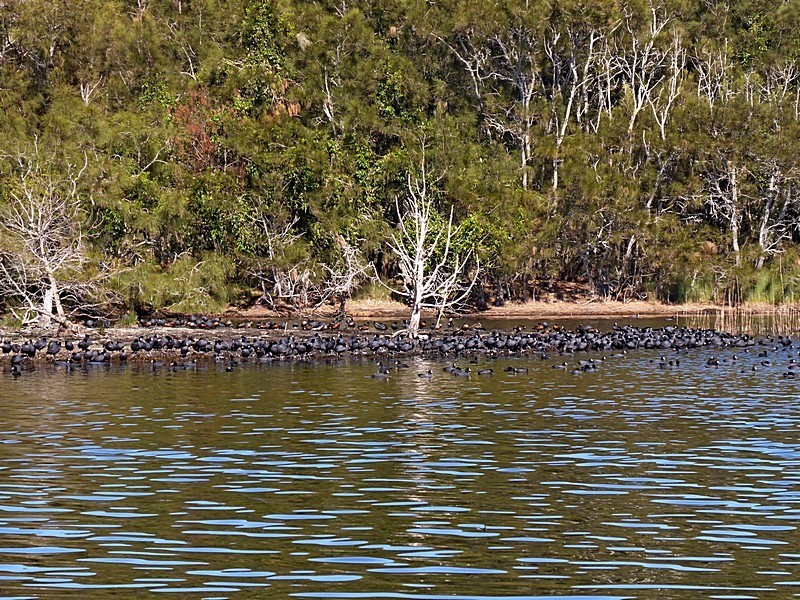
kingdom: Animalia
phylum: Chordata
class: Aves
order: Gruiformes
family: Rallidae
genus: Fulica
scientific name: Fulica atra
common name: Eurasian coot
